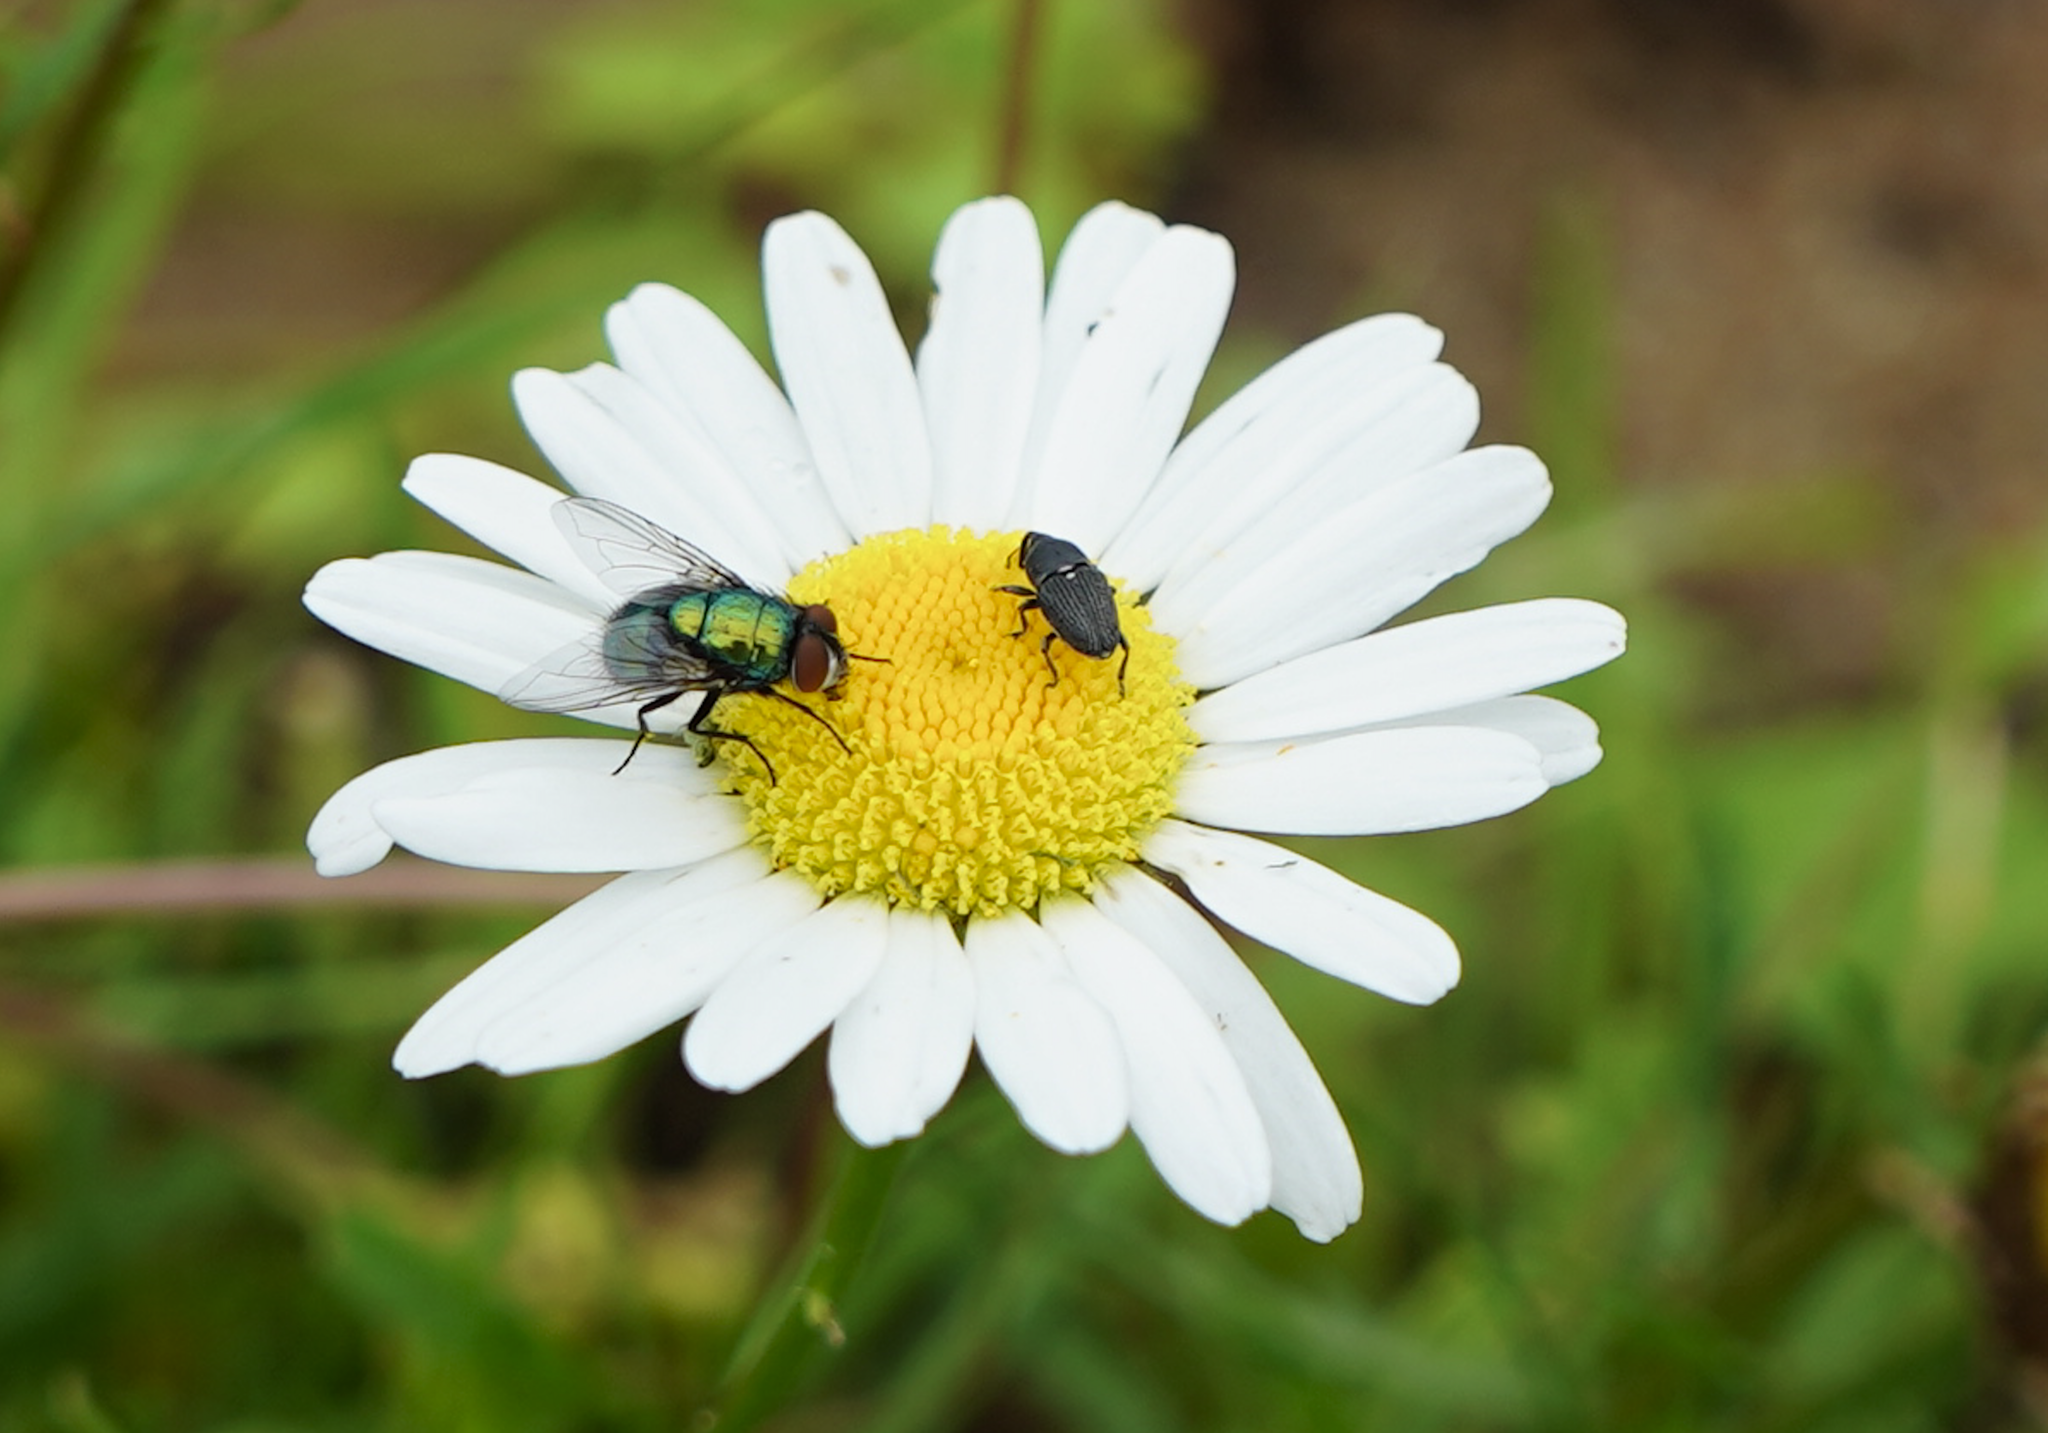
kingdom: Animalia
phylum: Arthropoda
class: Insecta
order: Diptera
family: Calliphoridae
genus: Lucilia
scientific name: Lucilia sericata
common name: Blow fly
